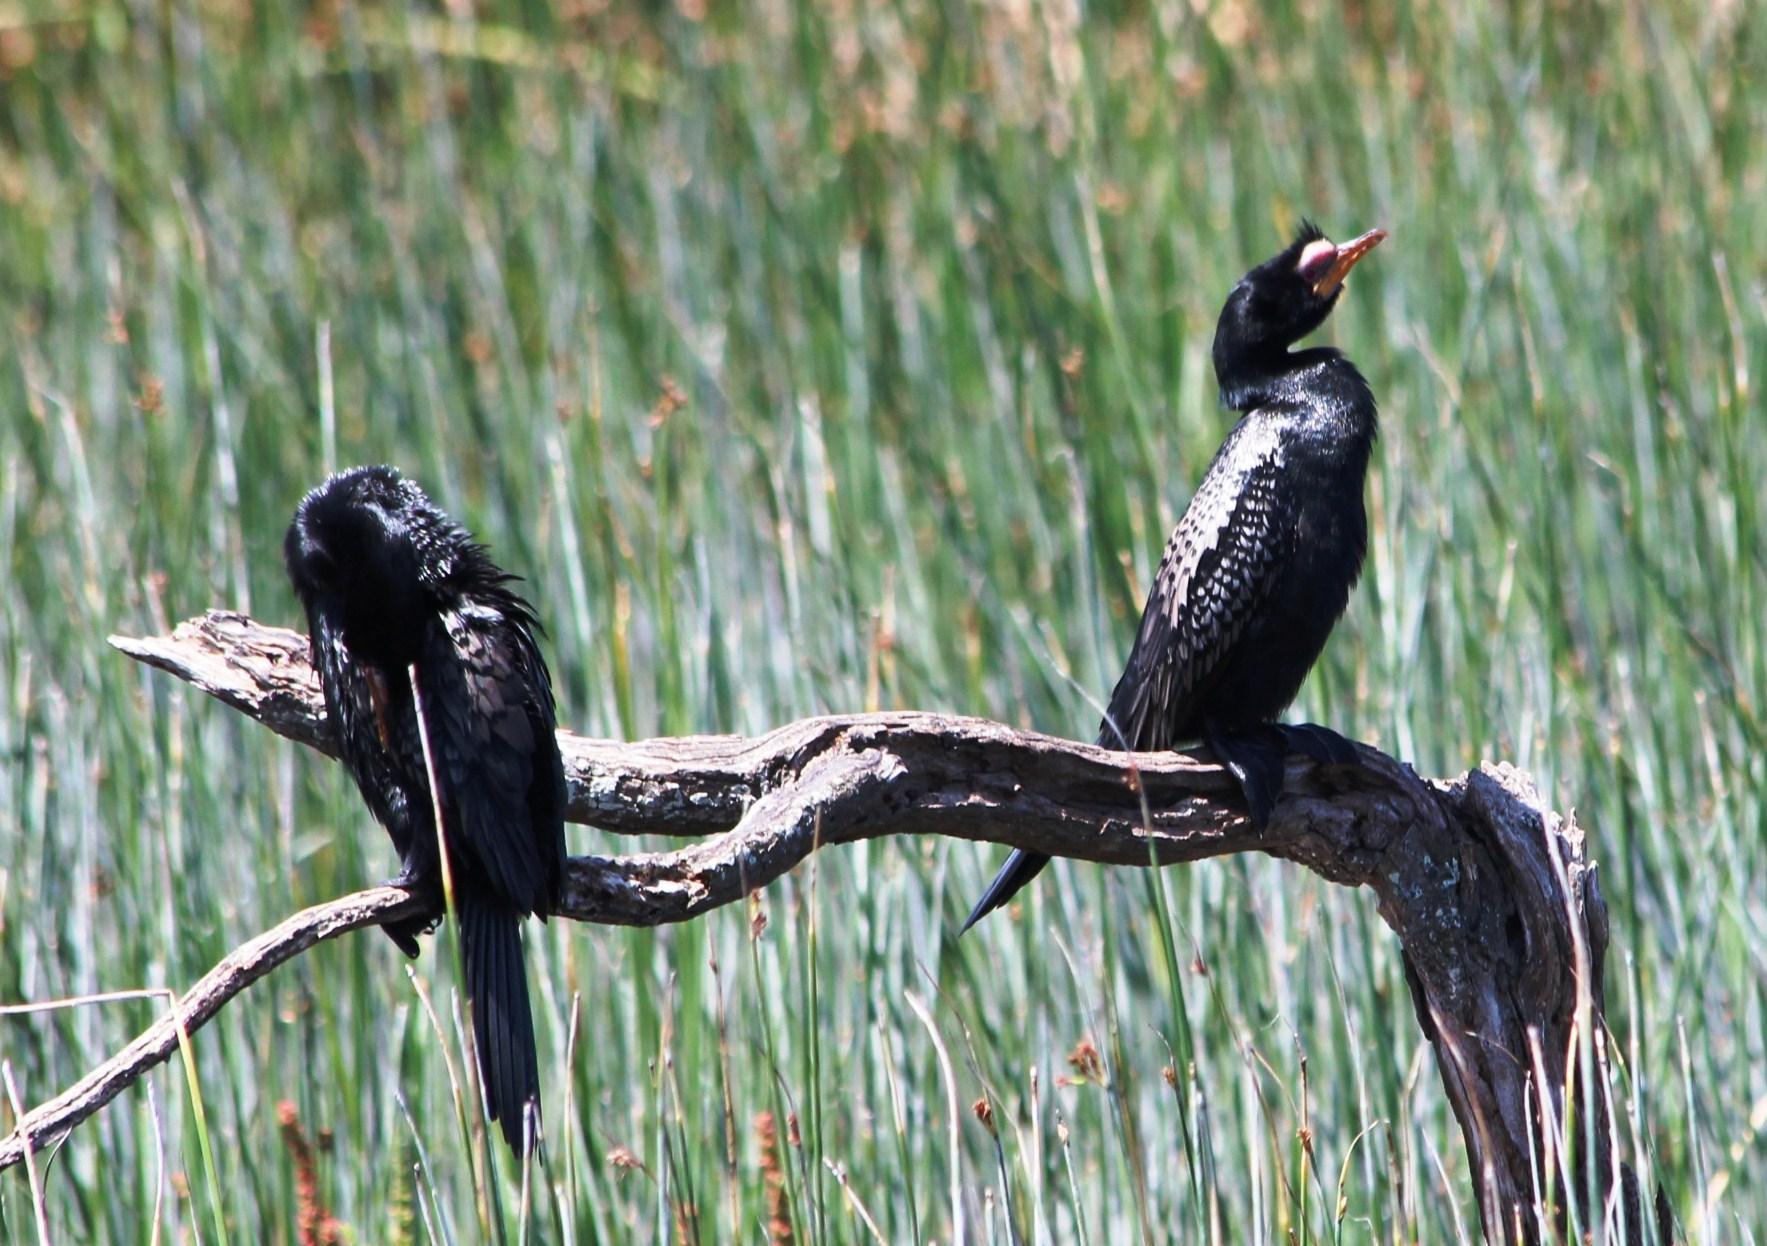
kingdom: Animalia
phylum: Chordata
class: Aves
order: Suliformes
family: Phalacrocoracidae
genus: Microcarbo
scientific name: Microcarbo africanus
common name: Long-tailed cormorant
